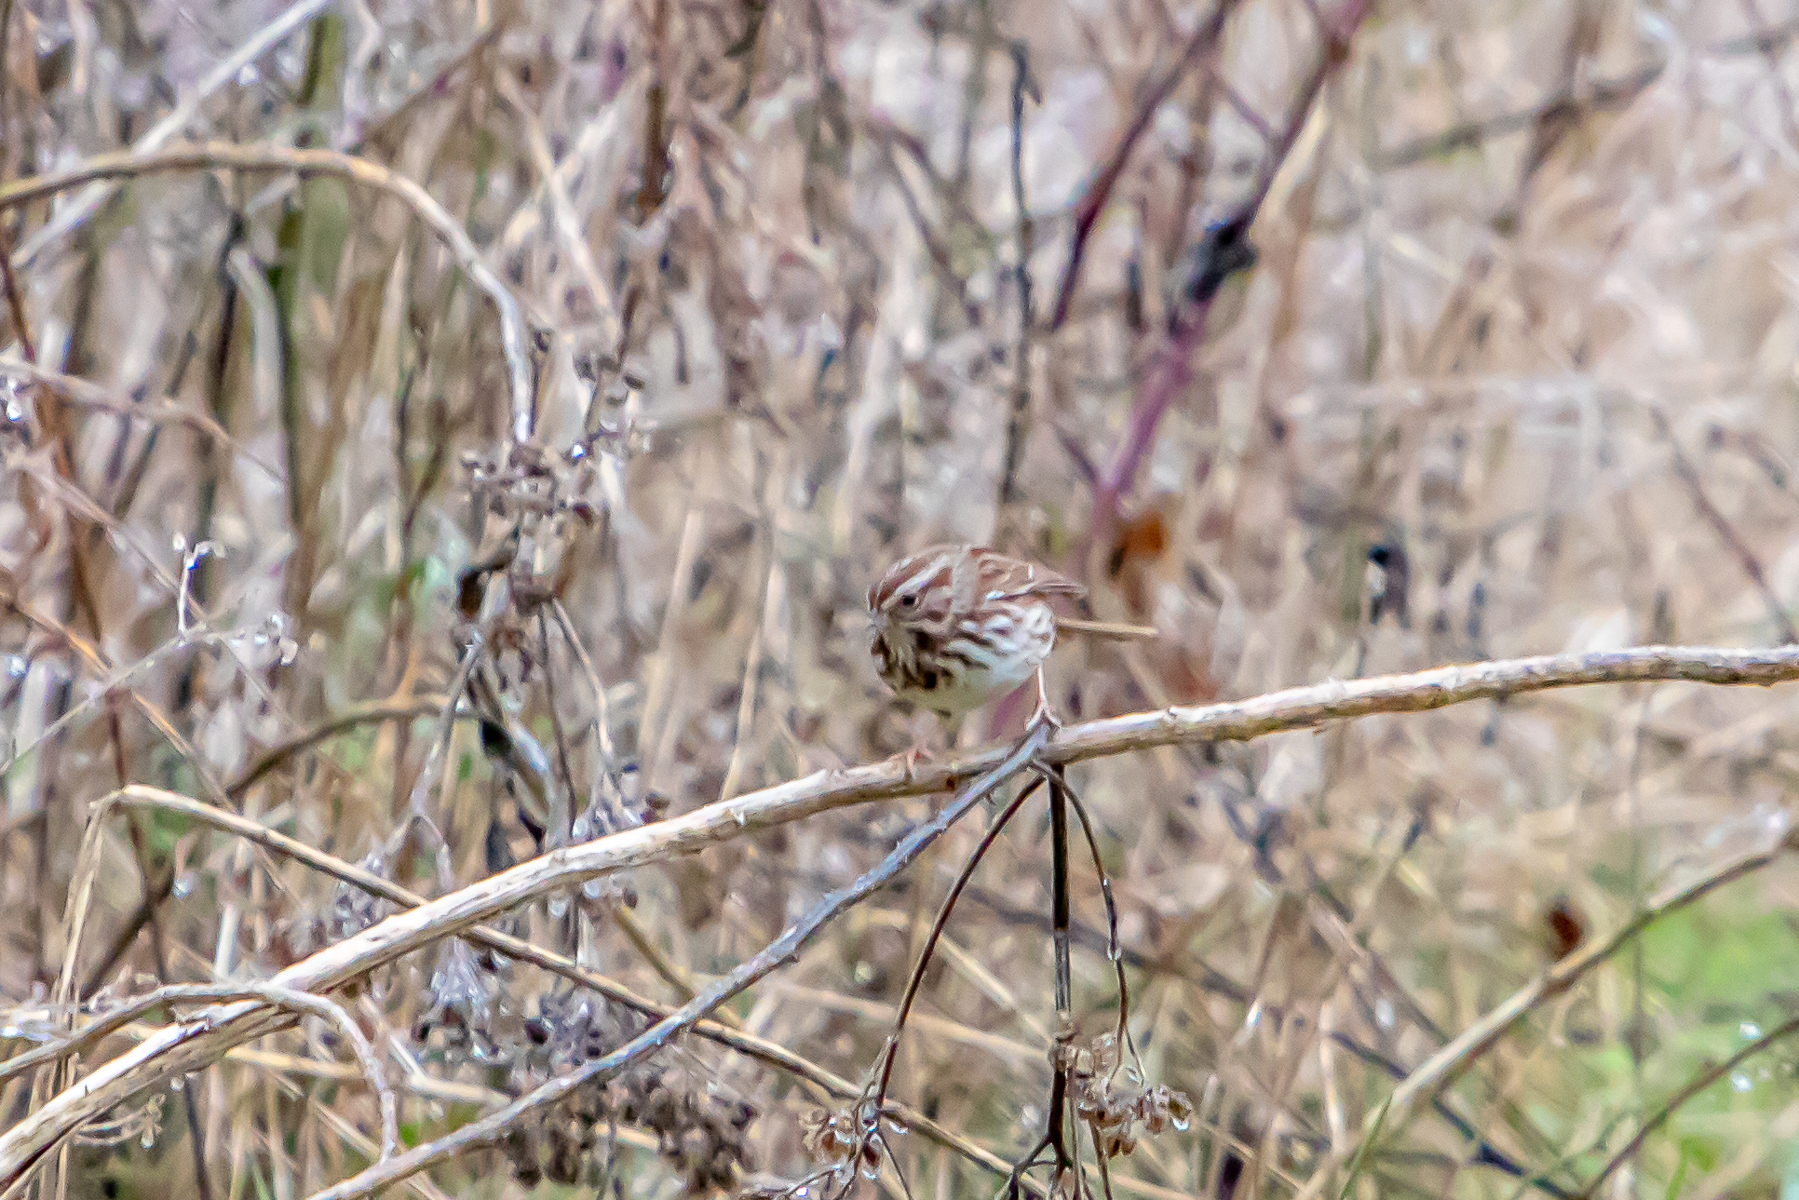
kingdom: Animalia
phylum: Chordata
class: Aves
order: Passeriformes
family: Passerellidae
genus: Melospiza
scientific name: Melospiza melodia
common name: Song sparrow
